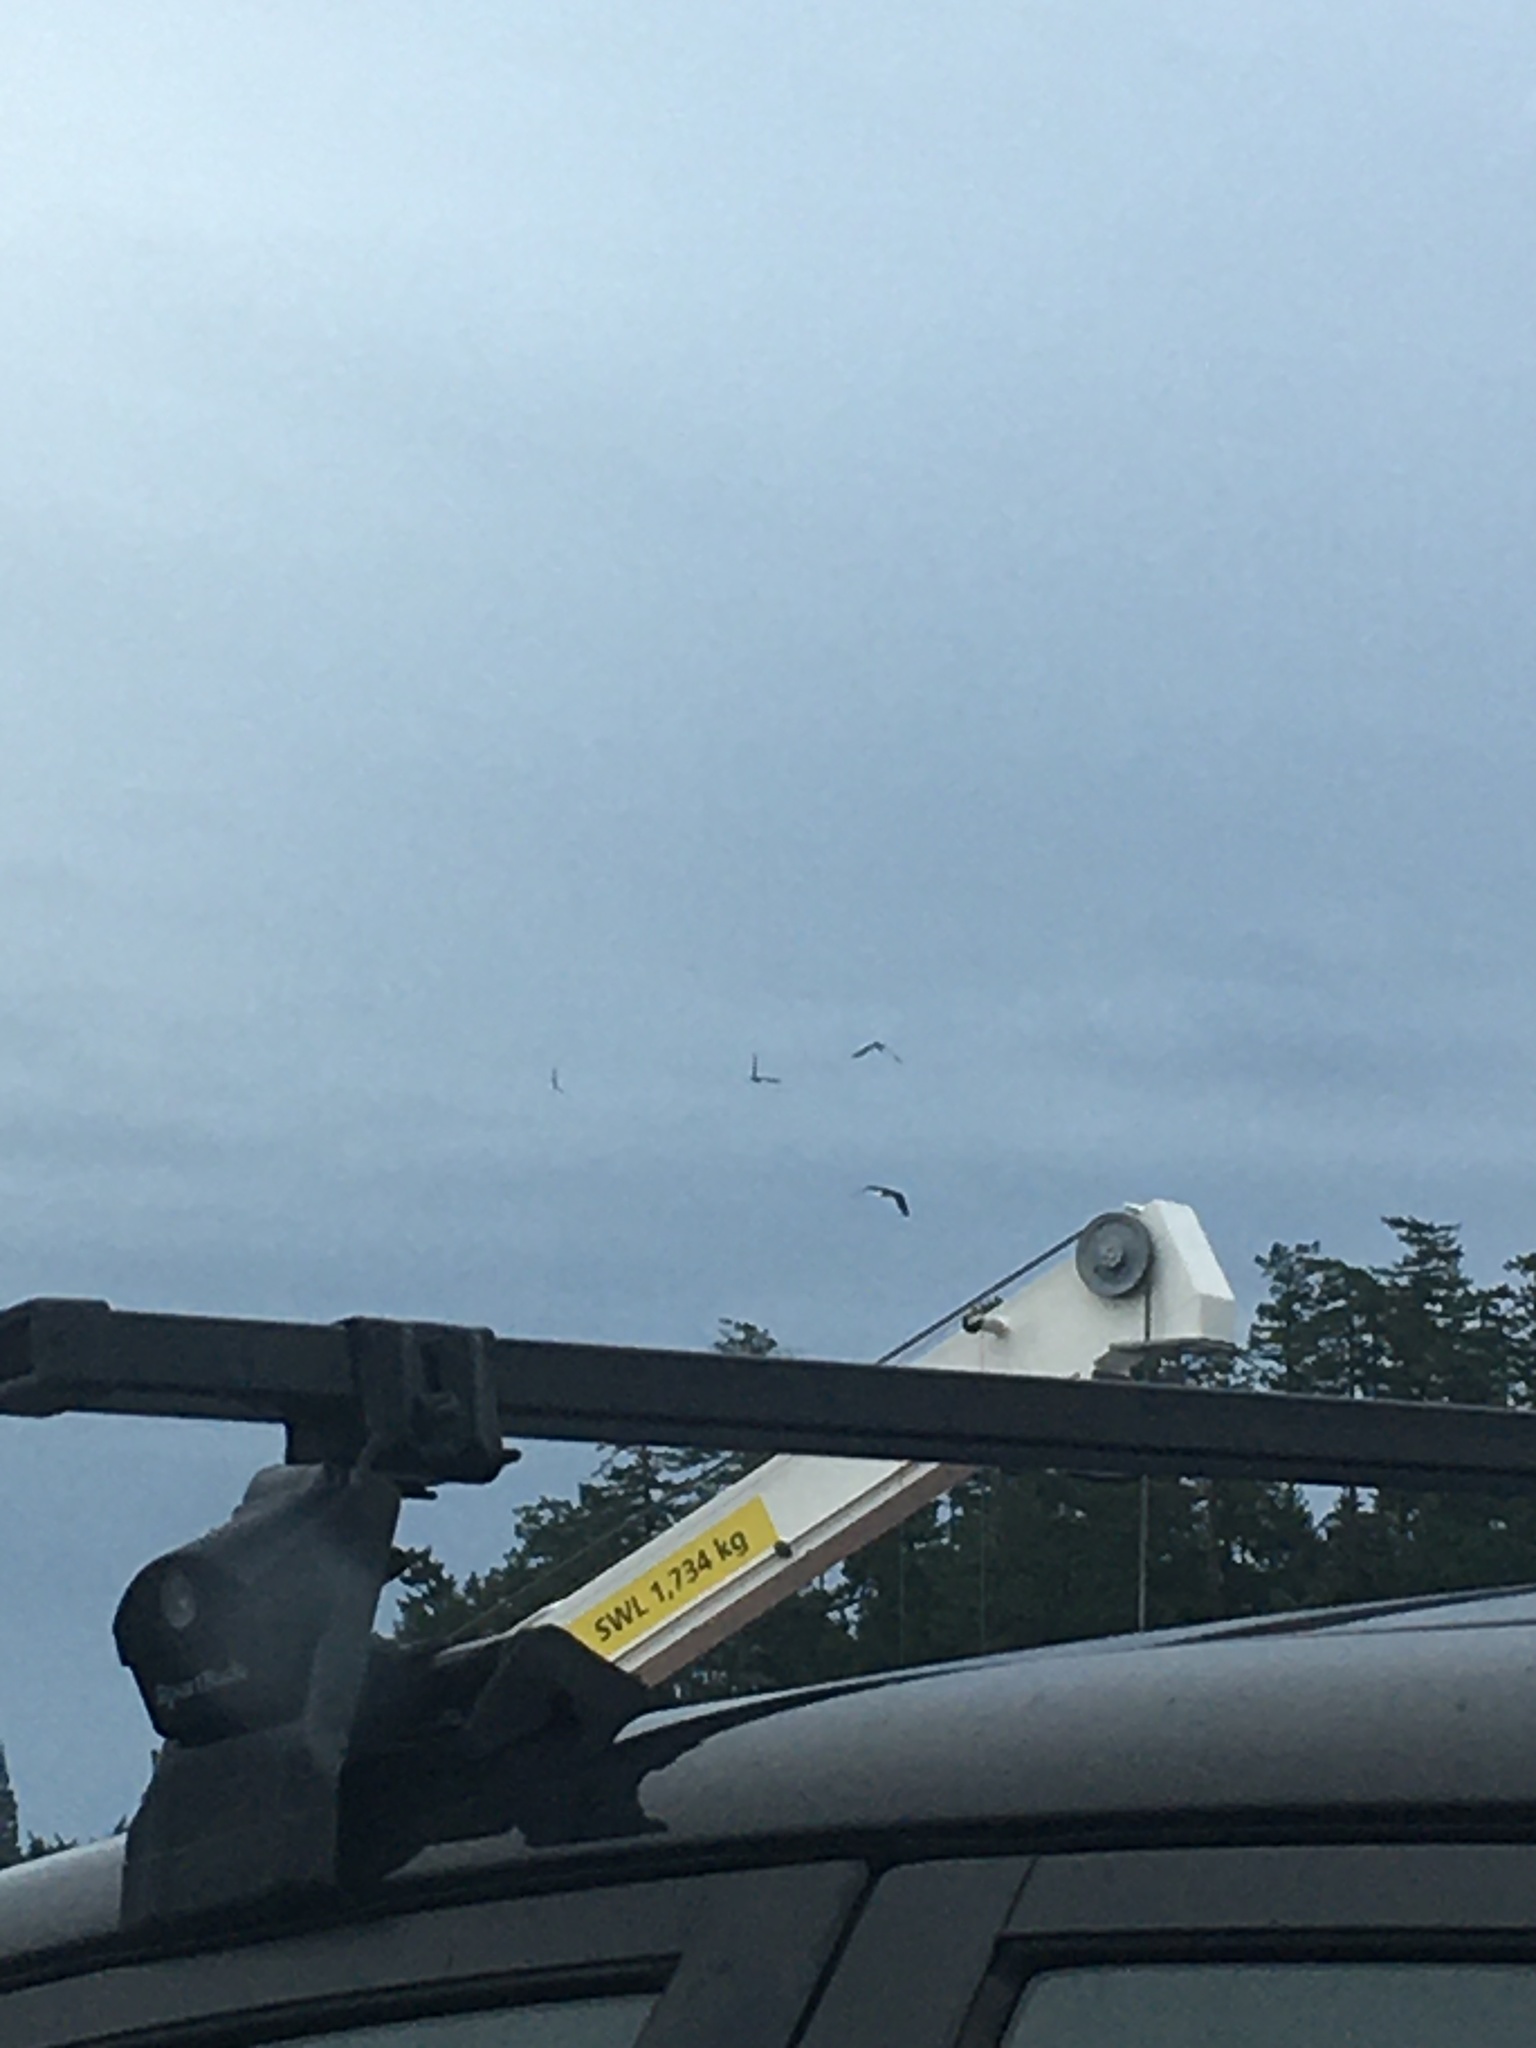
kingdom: Animalia
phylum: Chordata
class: Aves
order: Accipitriformes
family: Accipitridae
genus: Haliaeetus
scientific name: Haliaeetus leucocephalus
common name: Bald eagle
